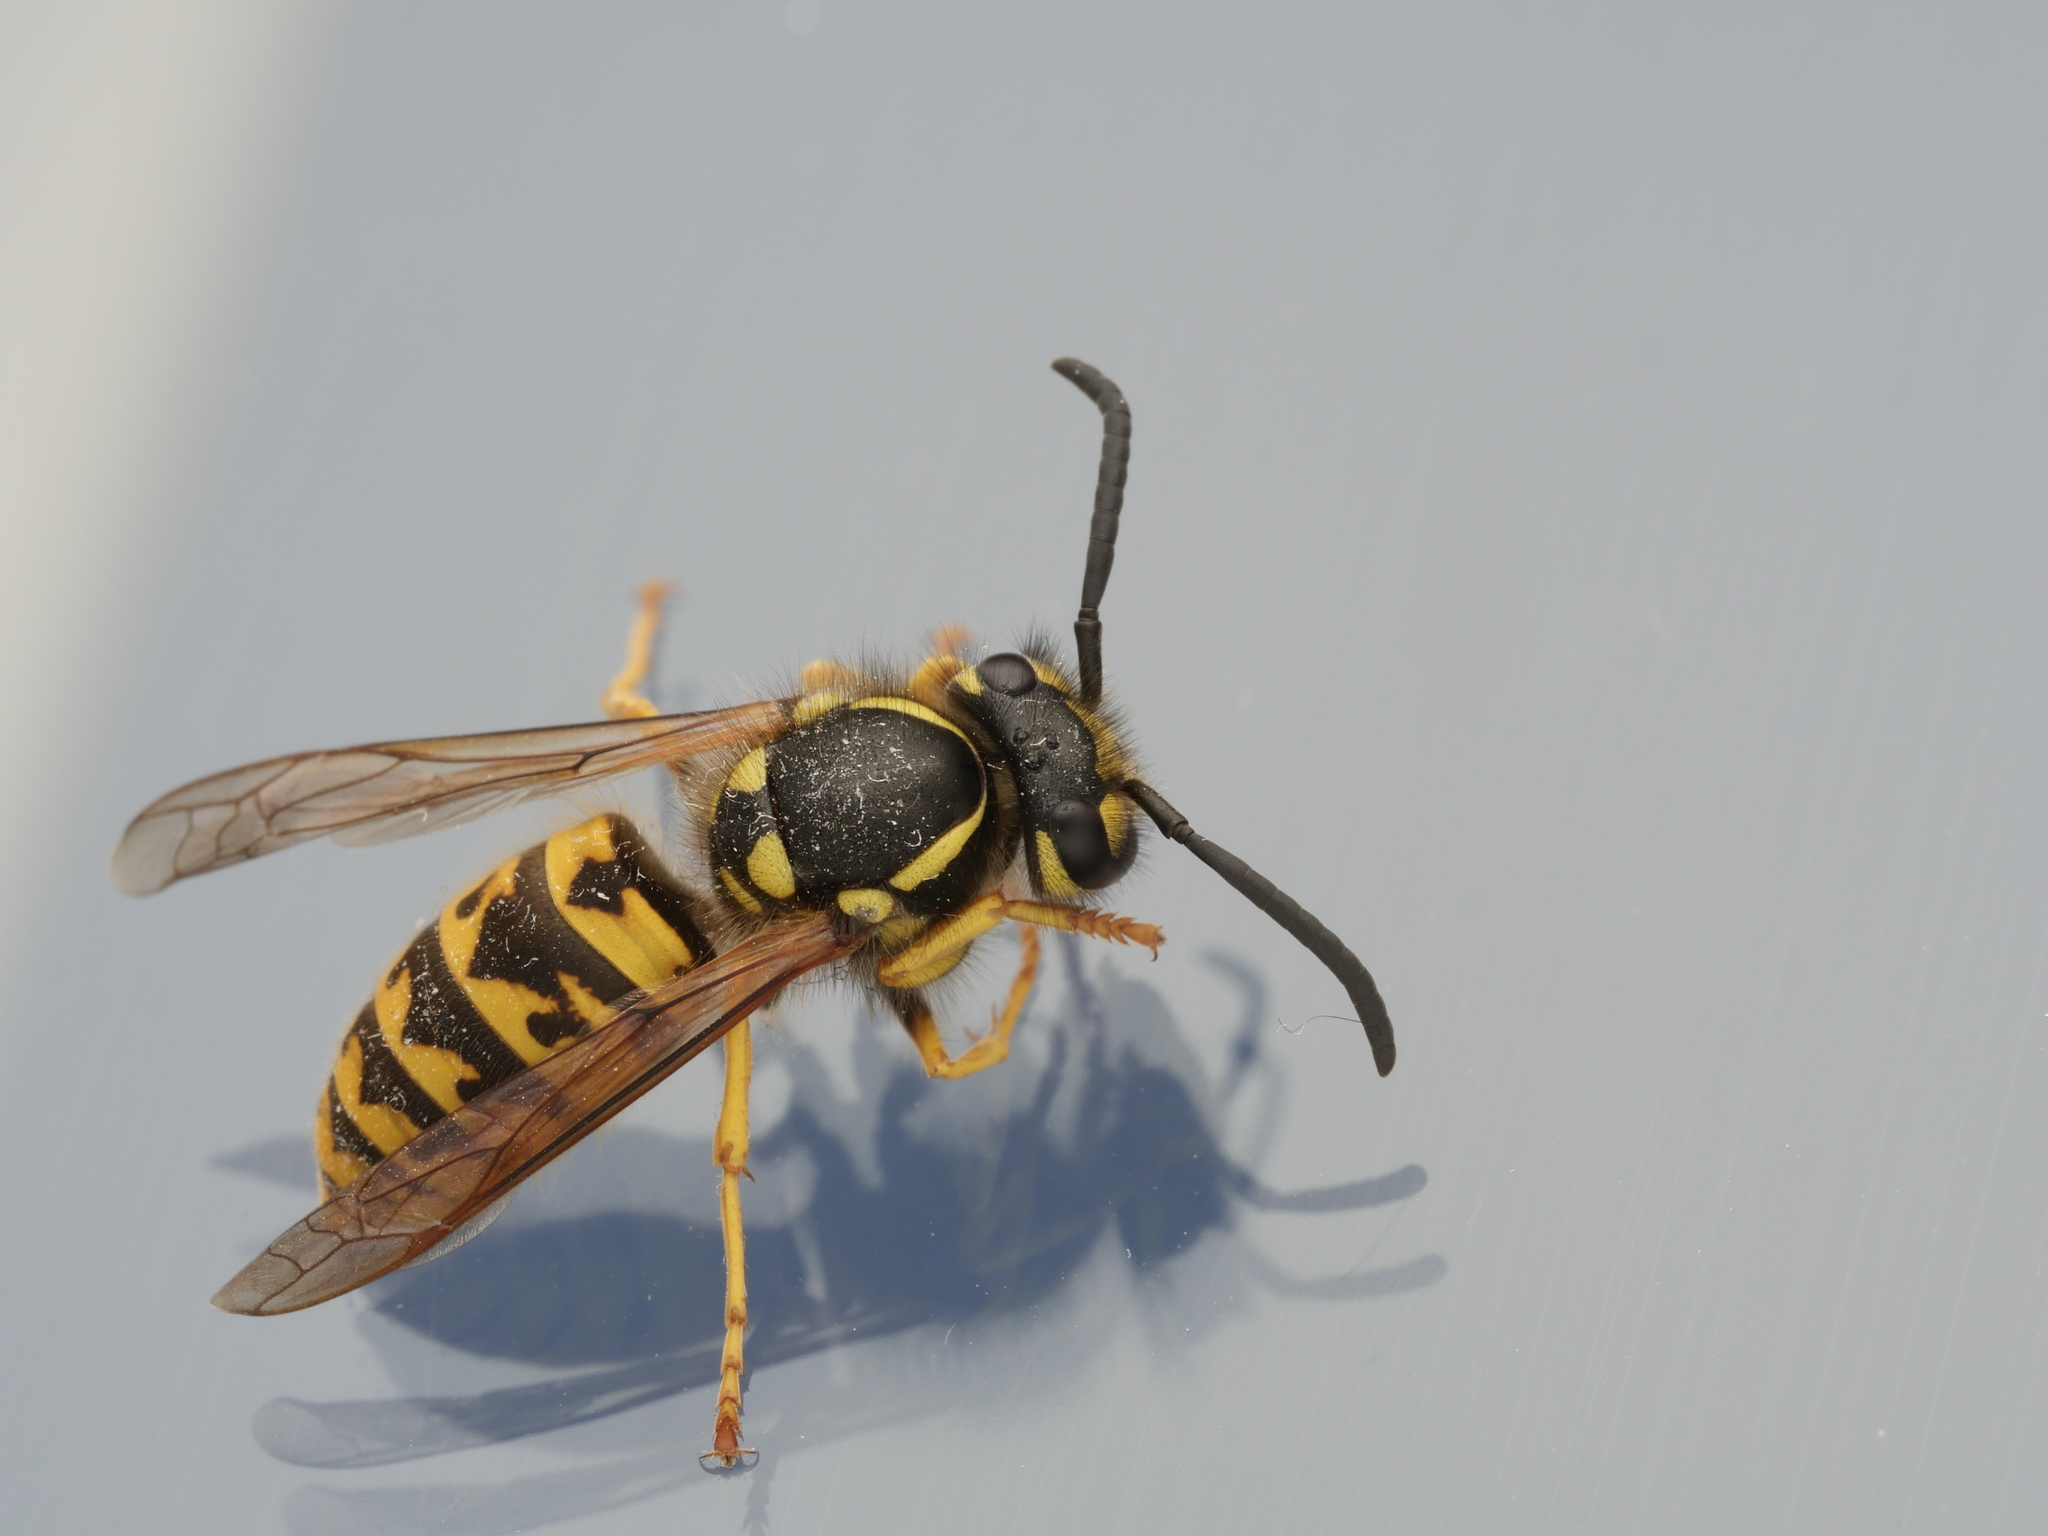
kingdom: Animalia
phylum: Arthropoda
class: Insecta
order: Hymenoptera
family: Vespidae
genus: Vespula
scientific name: Vespula germanica
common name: German wasp
